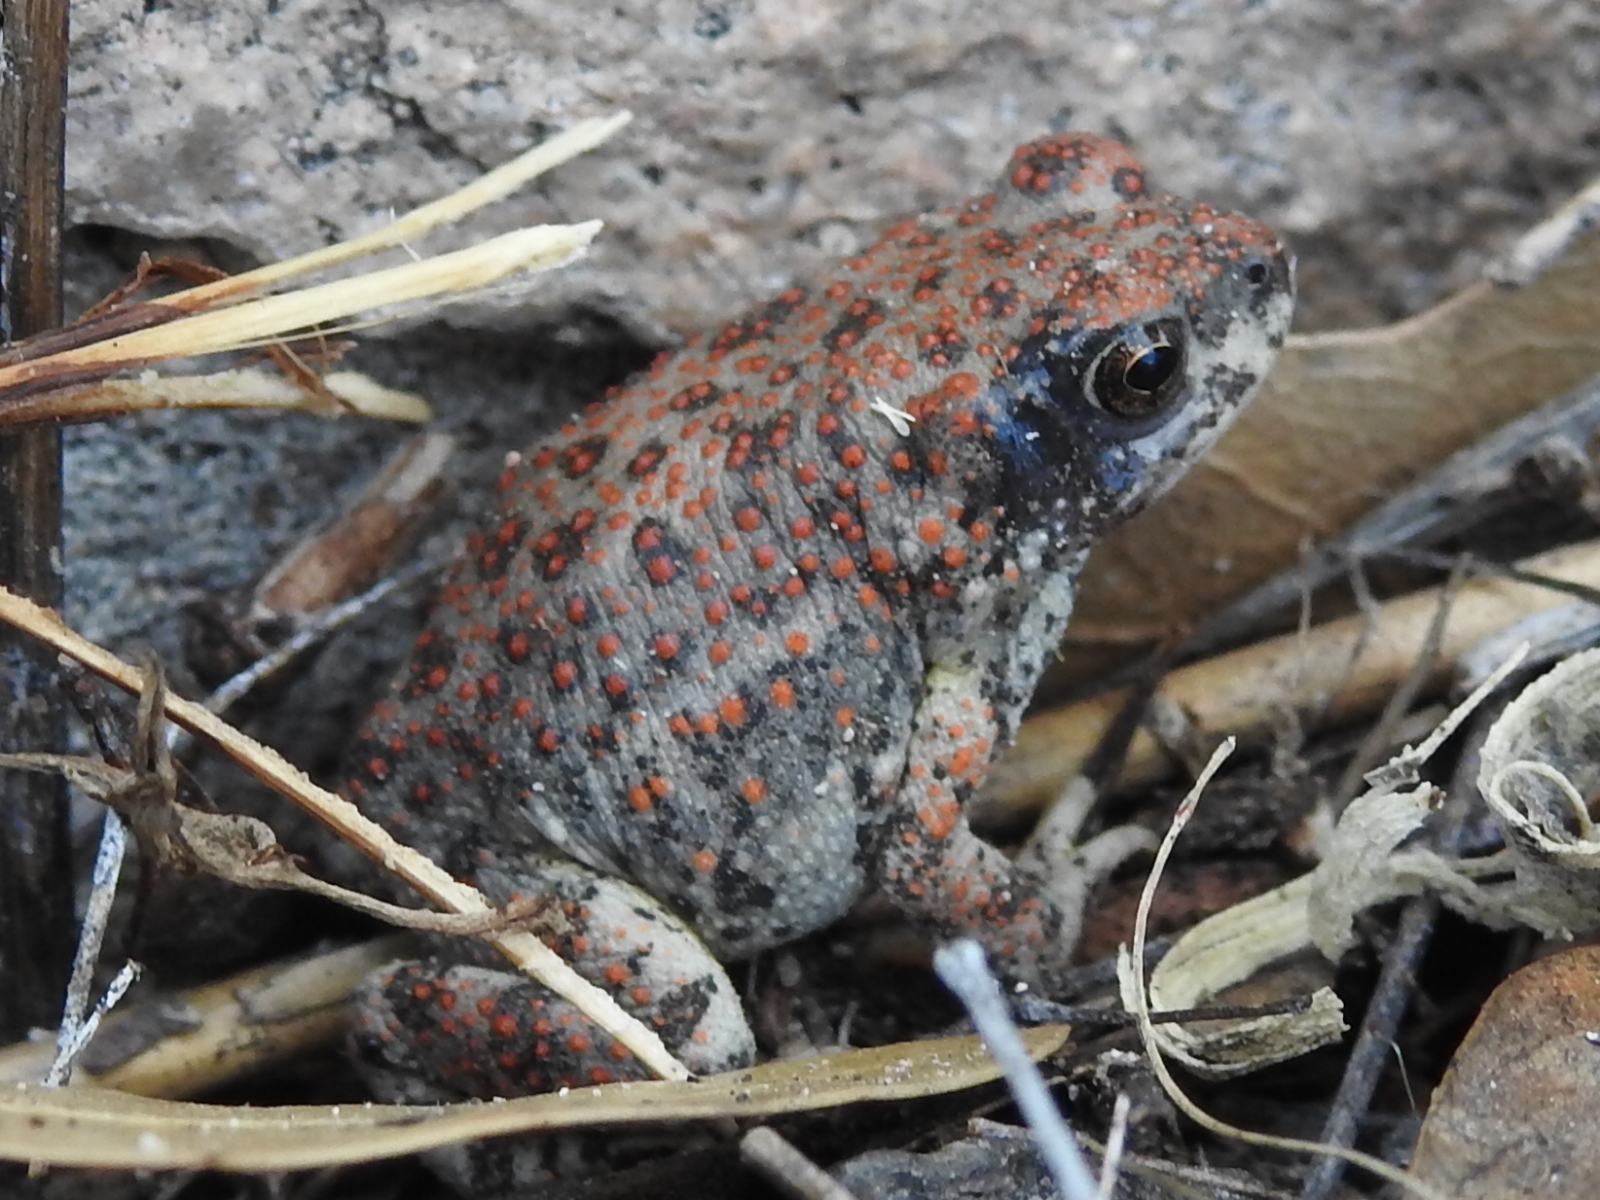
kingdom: Animalia
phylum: Chordata
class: Amphibia
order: Anura
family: Bufonidae
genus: Anaxyrus
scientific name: Anaxyrus punctatus
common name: Red-spotted toad
